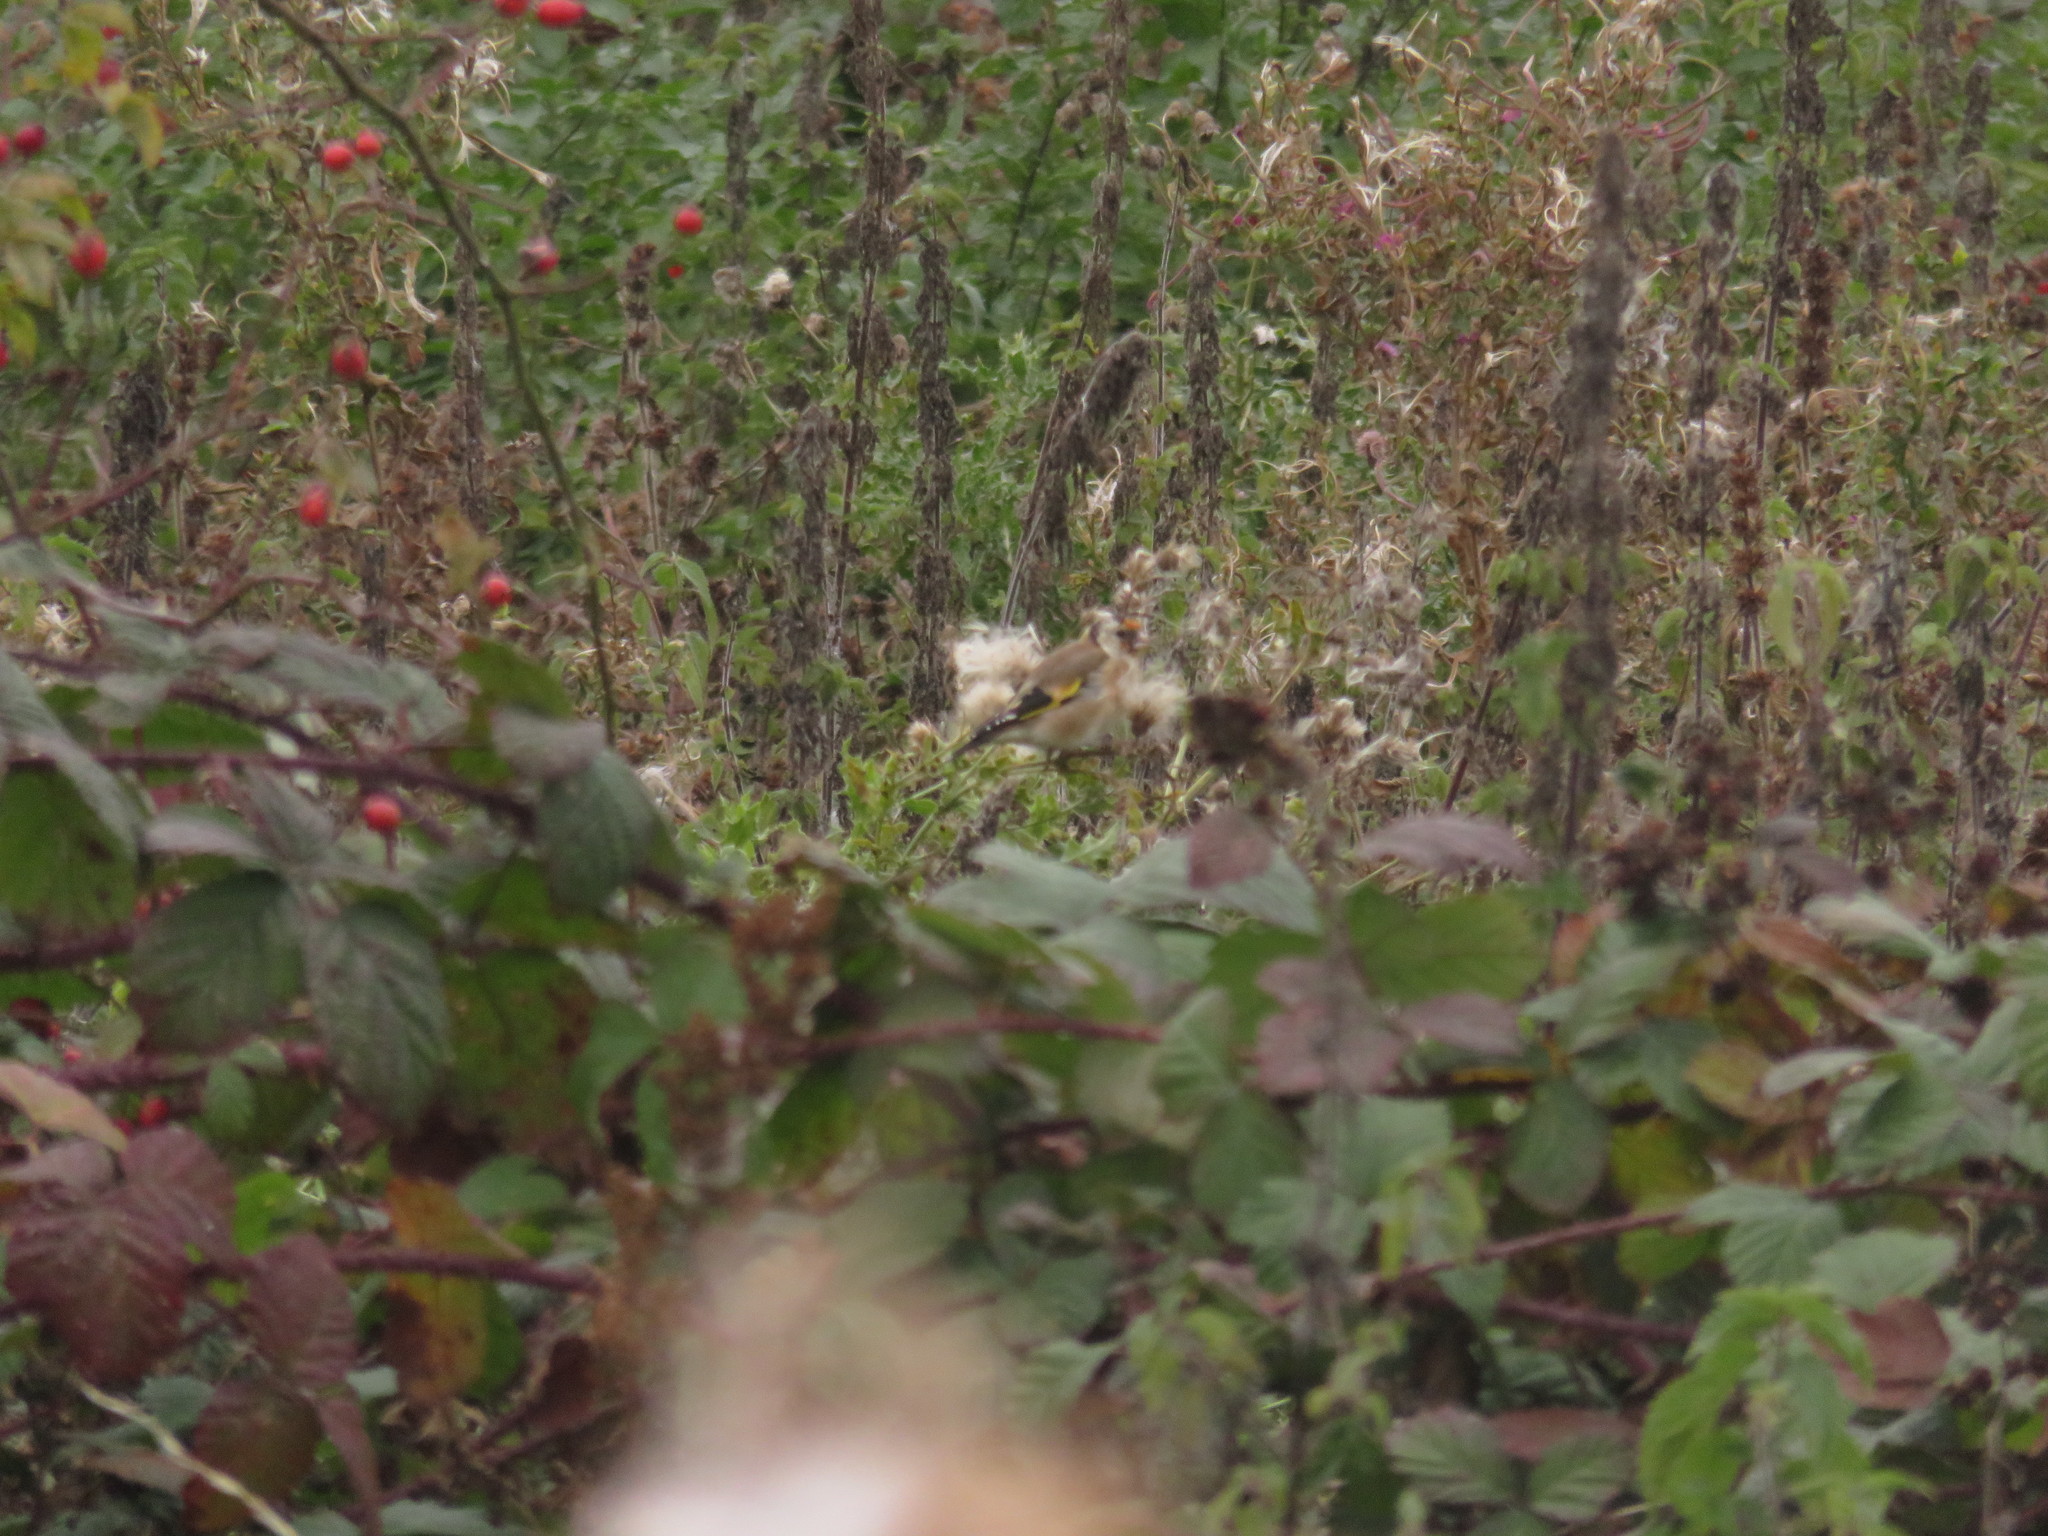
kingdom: Animalia
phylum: Chordata
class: Aves
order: Passeriformes
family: Fringillidae
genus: Carduelis
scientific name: Carduelis carduelis
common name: European goldfinch
